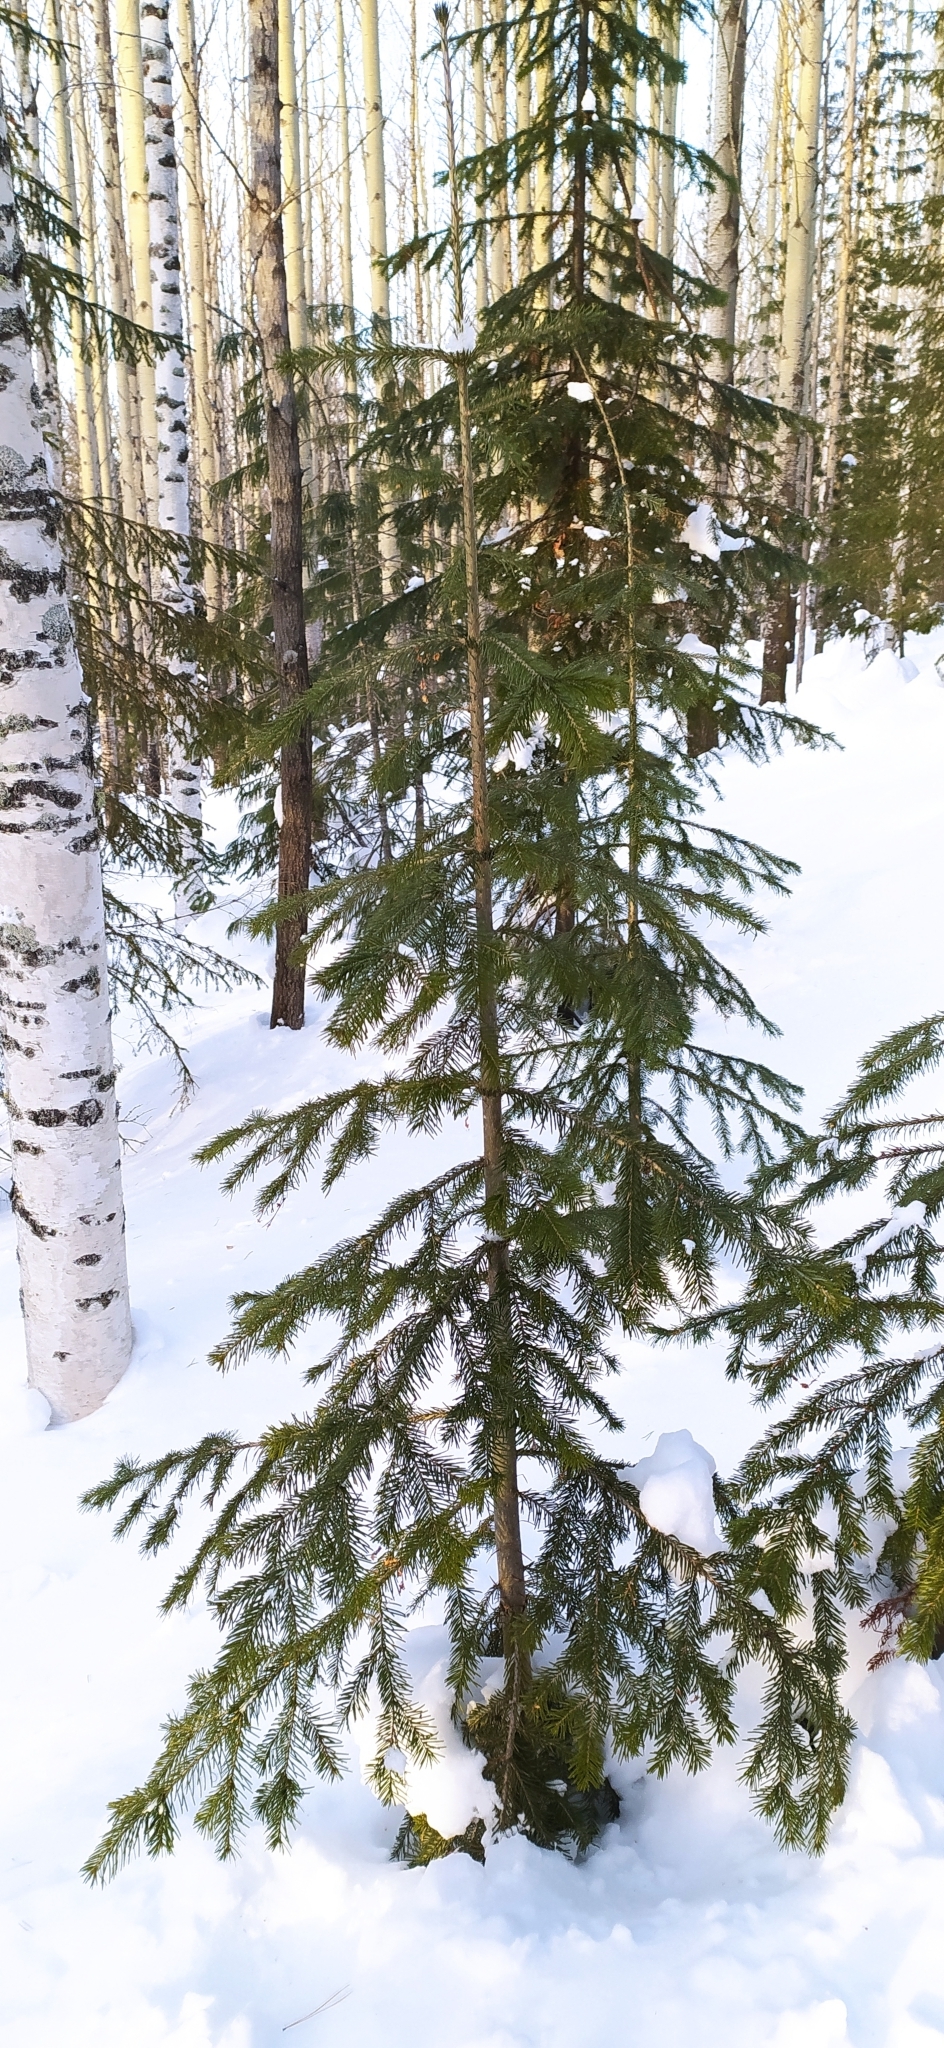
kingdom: Plantae
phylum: Tracheophyta
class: Pinopsida
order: Pinales
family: Pinaceae
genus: Abies
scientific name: Abies sibirica
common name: Siberian fir
